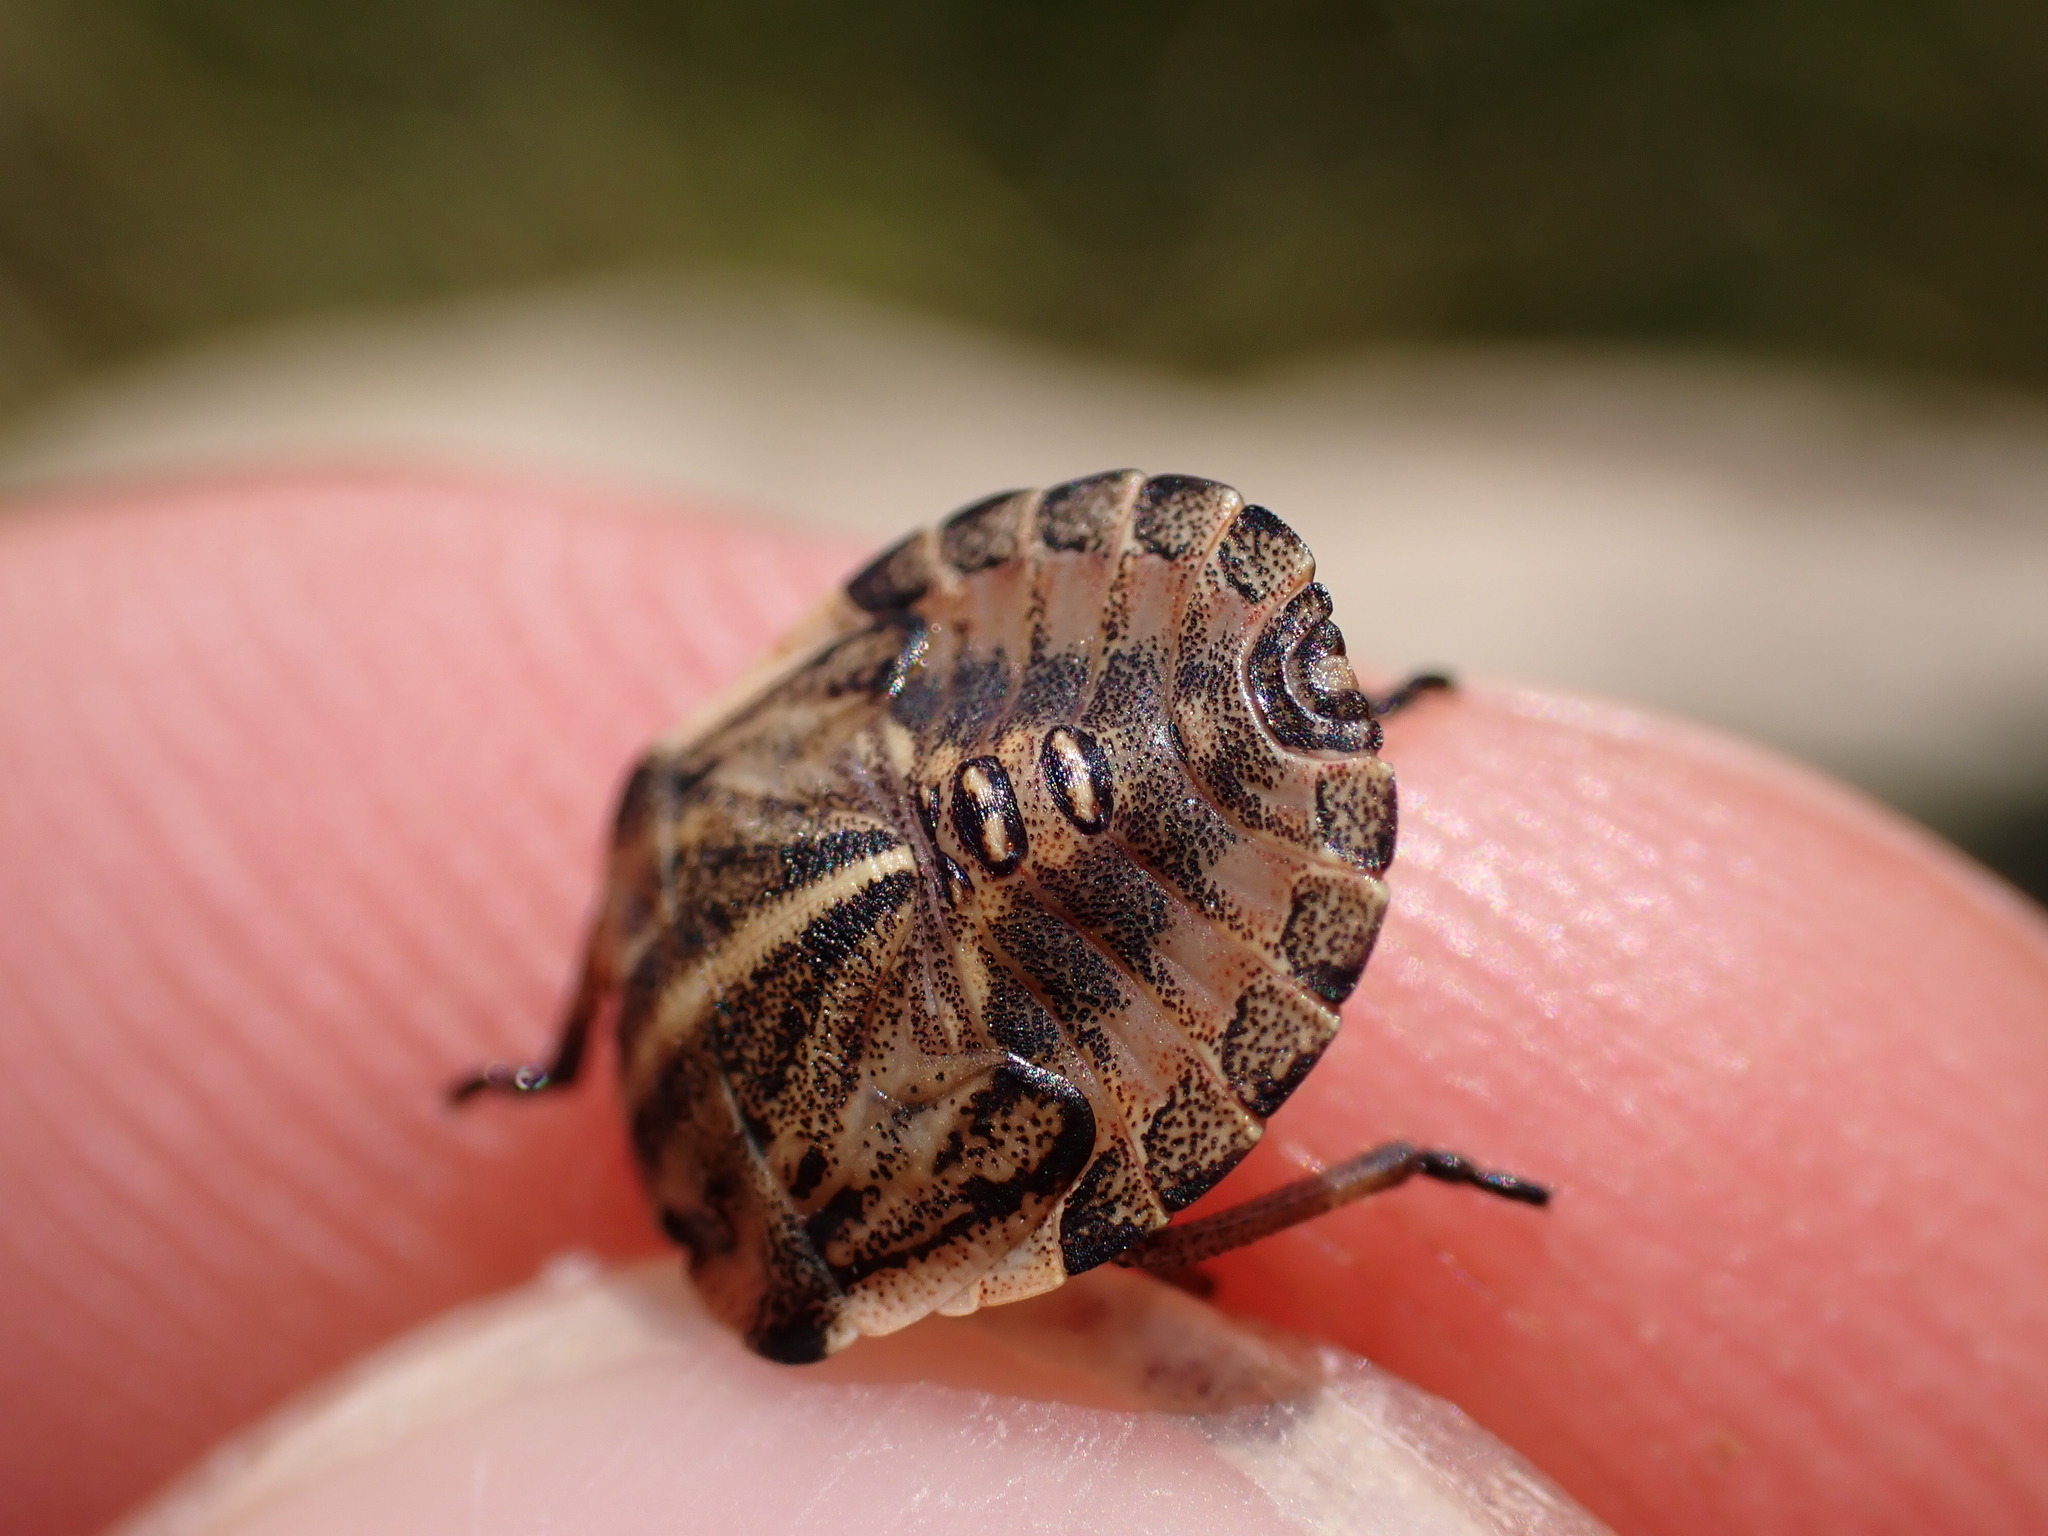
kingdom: Animalia
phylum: Arthropoda
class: Insecta
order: Hemiptera
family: Pentatomidae
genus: Graphosoma
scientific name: Graphosoma italicum
